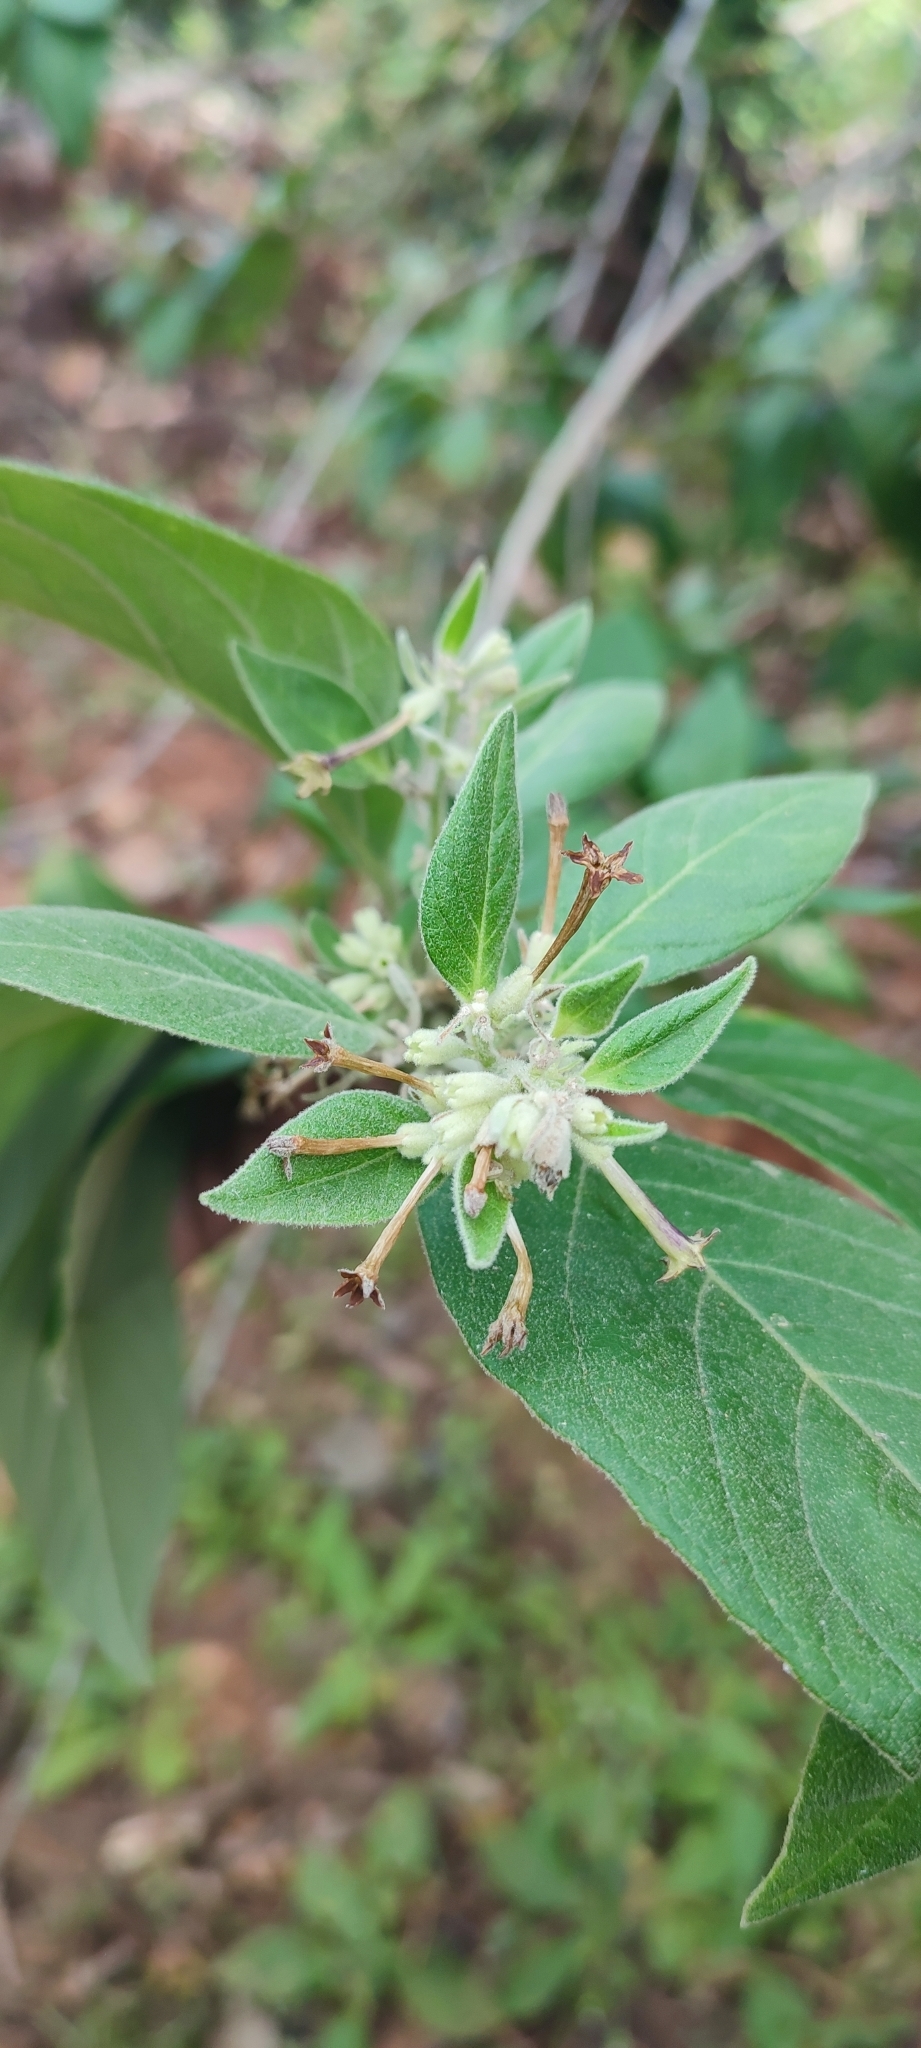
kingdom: Plantae
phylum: Tracheophyta
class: Magnoliopsida
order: Solanales
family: Solanaceae
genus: Cestrum
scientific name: Cestrum tomentosum
